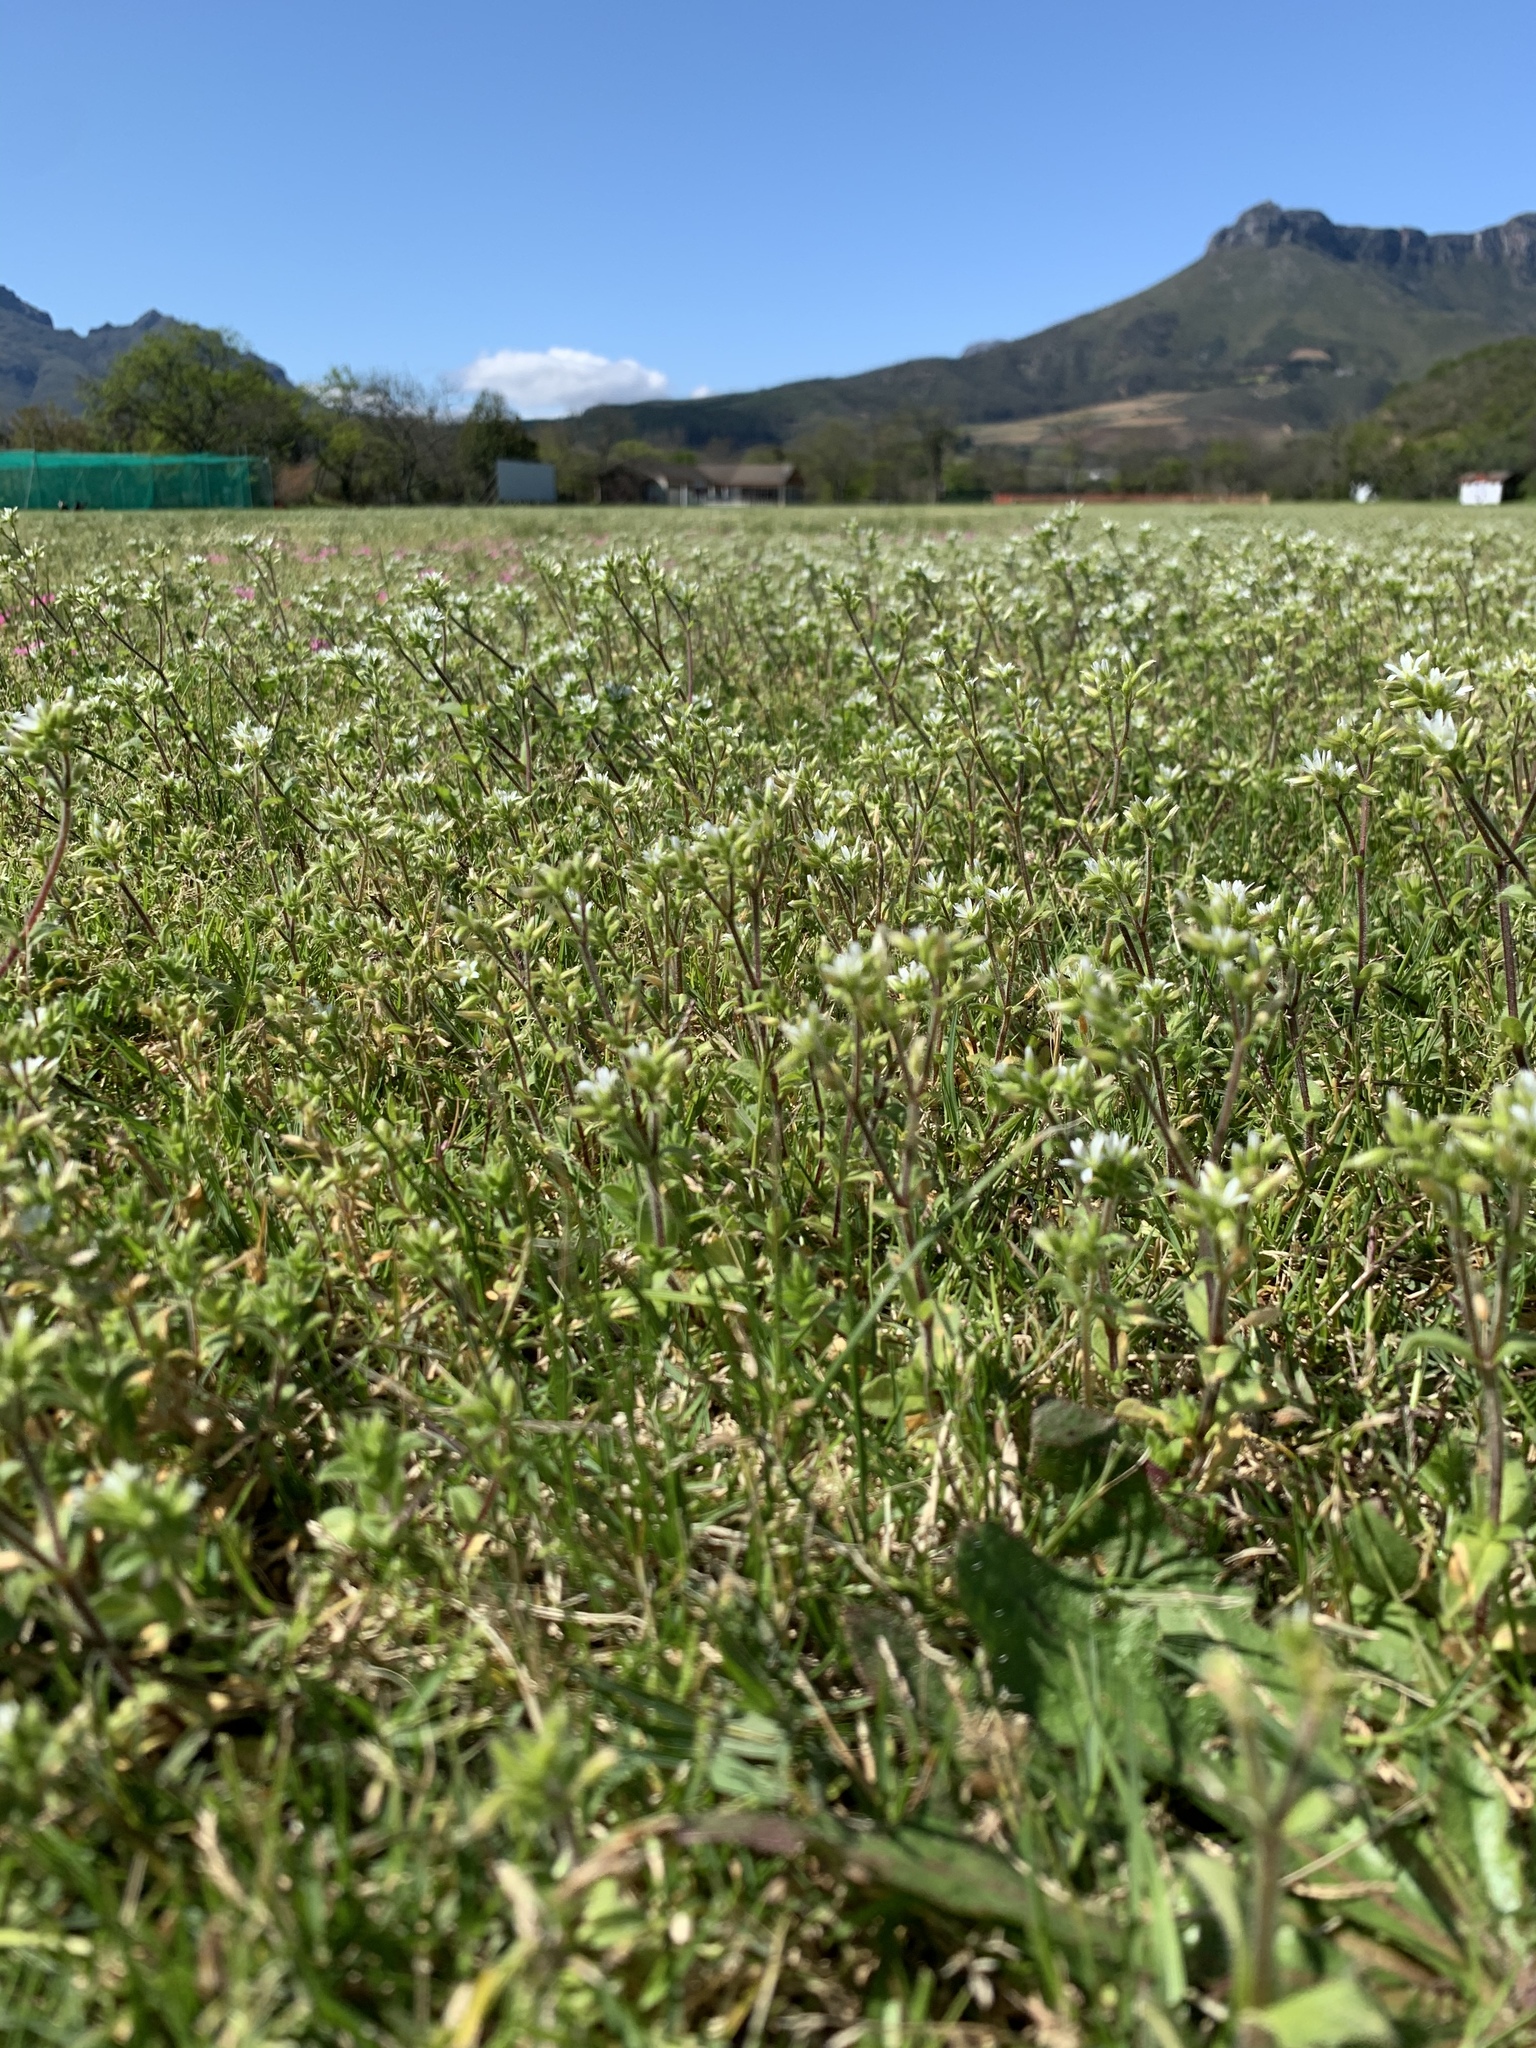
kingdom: Plantae
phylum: Tracheophyta
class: Magnoliopsida
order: Caryophyllales
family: Caryophyllaceae
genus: Cerastium
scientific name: Cerastium glomeratum
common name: Sticky chickweed
